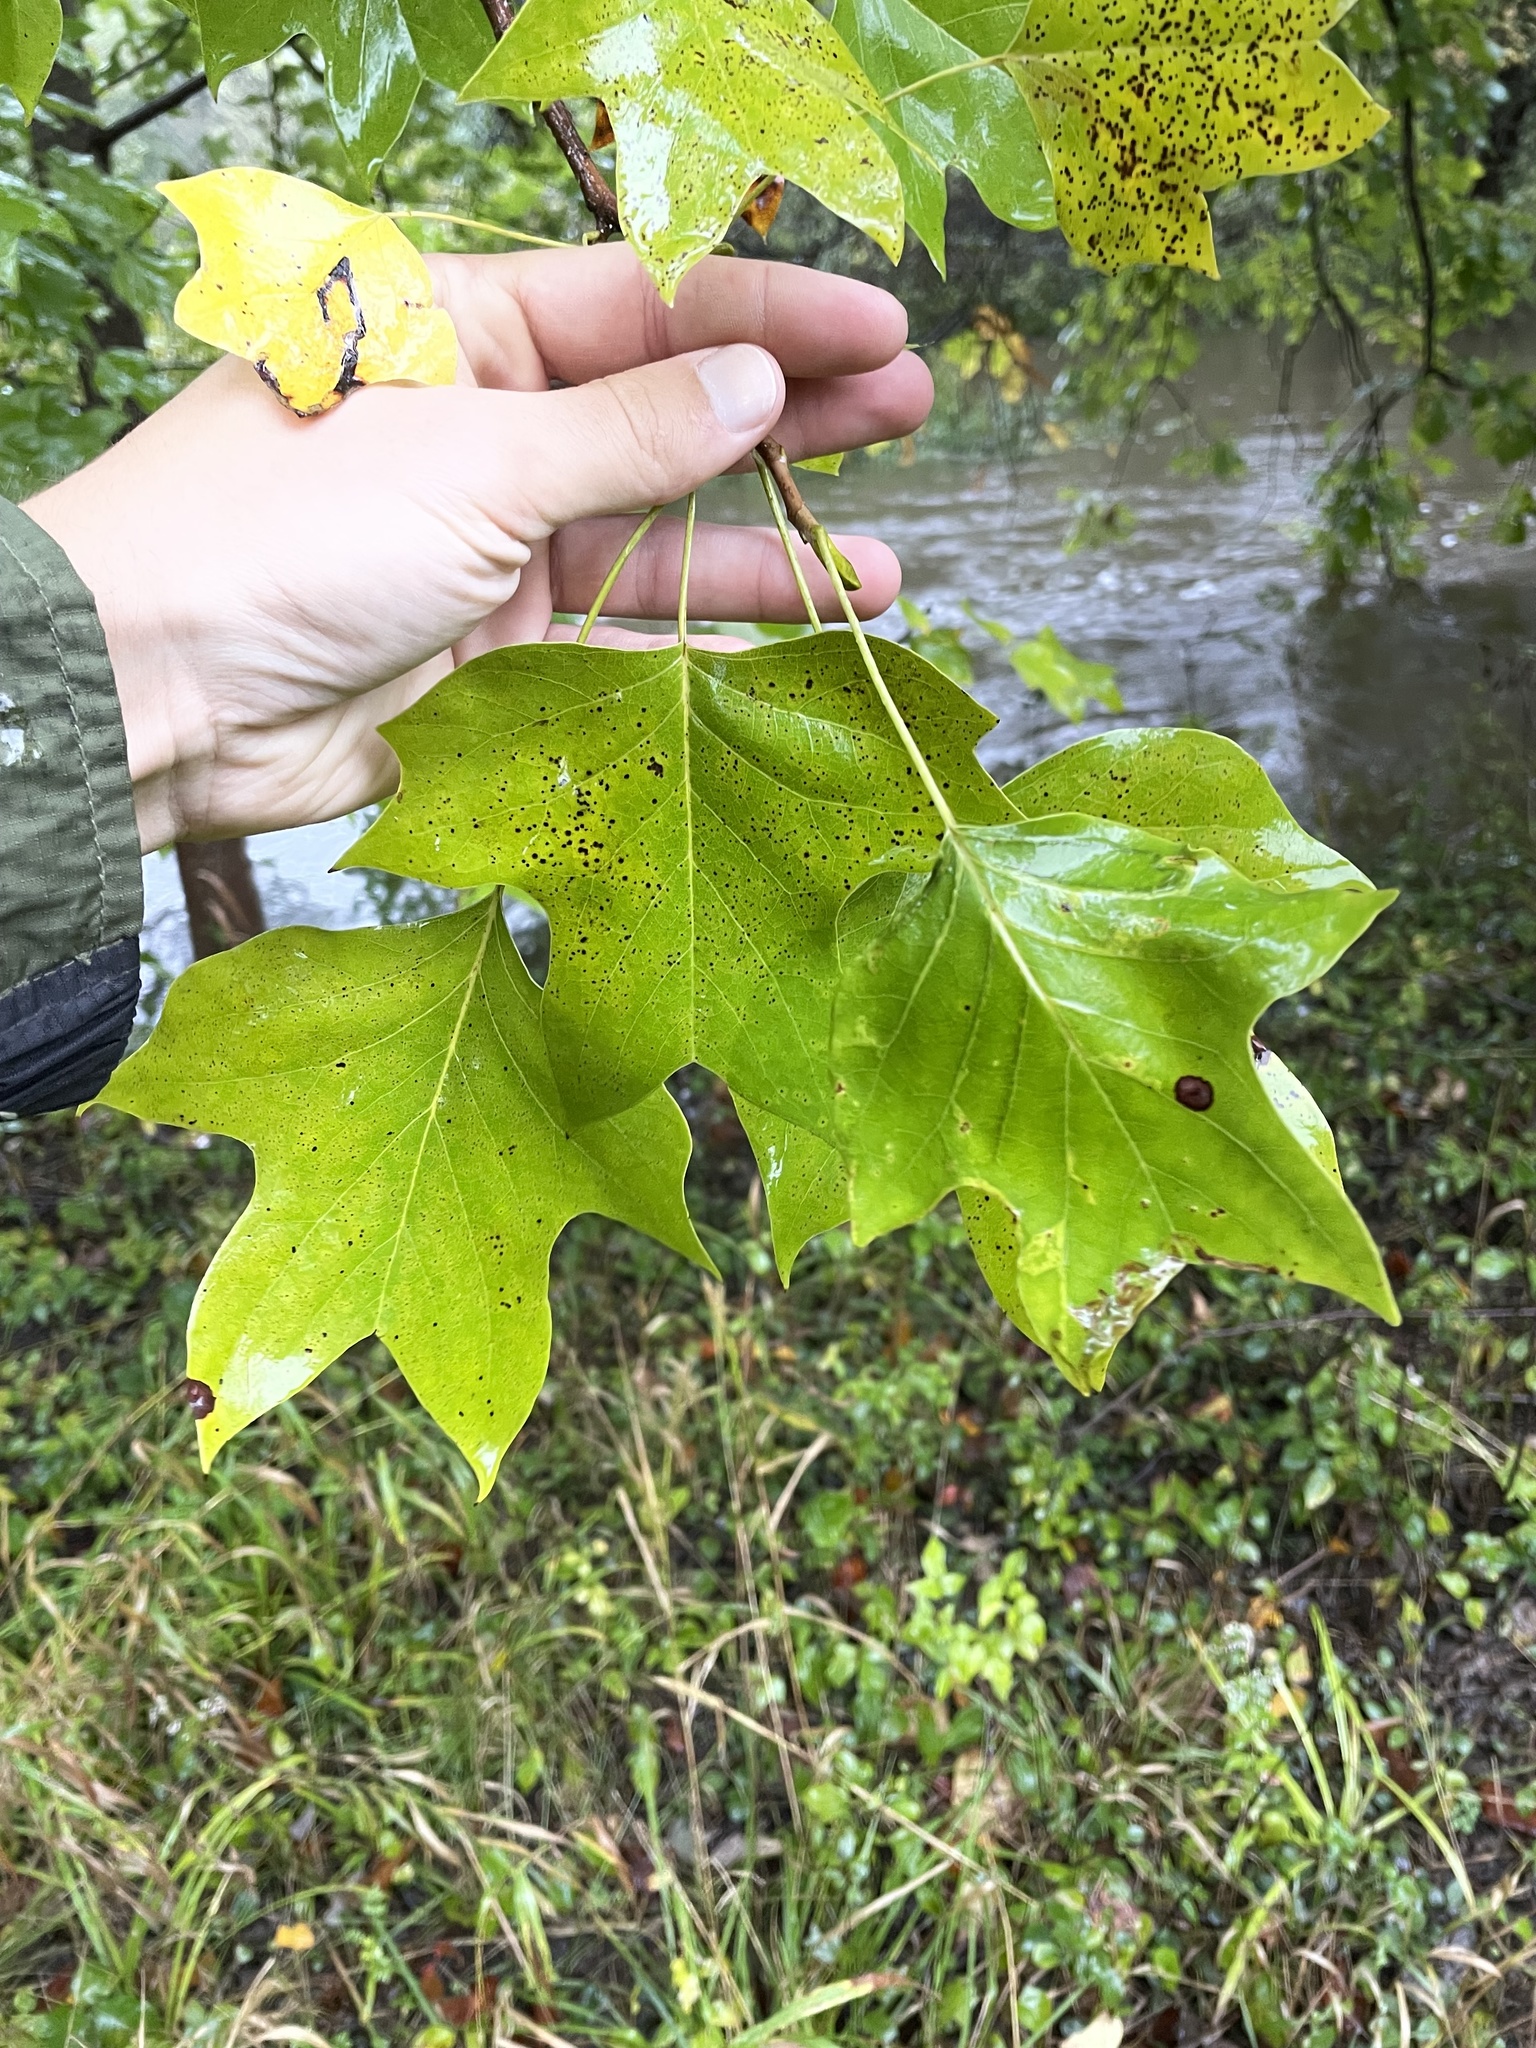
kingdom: Plantae
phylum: Tracheophyta
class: Magnoliopsida
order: Magnoliales
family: Magnoliaceae
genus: Liriodendron
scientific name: Liriodendron tulipifera
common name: Tulip tree
